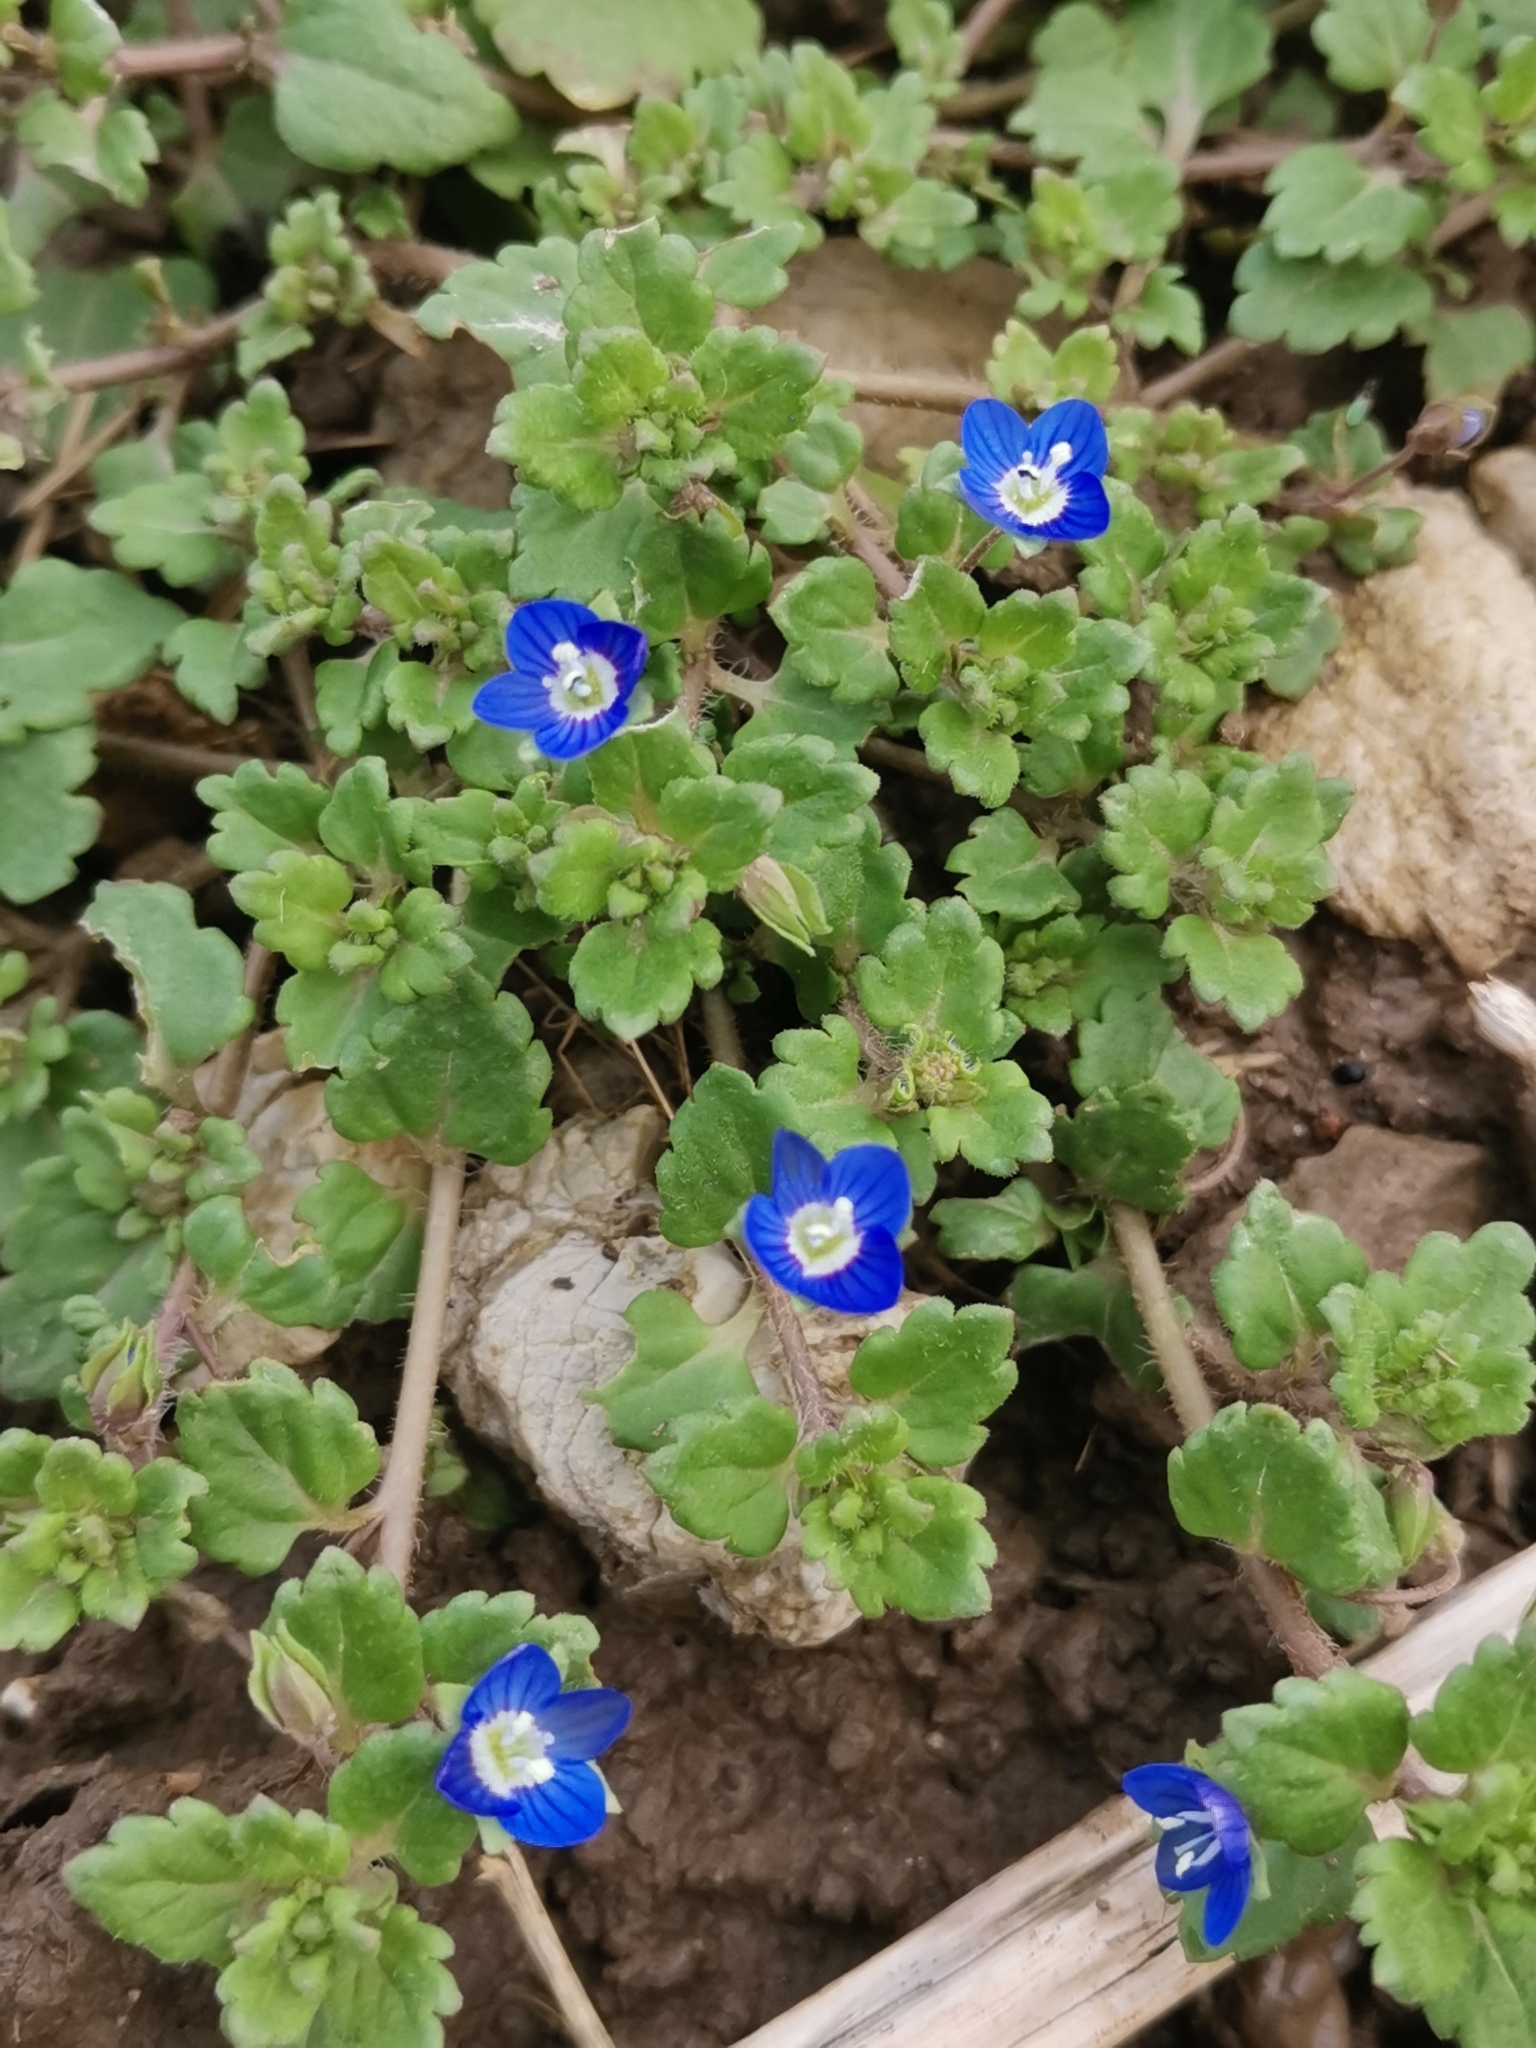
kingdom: Plantae
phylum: Tracheophyta
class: Magnoliopsida
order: Lamiales
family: Plantaginaceae
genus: Veronica
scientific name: Veronica polita
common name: Grey field-speedwell
